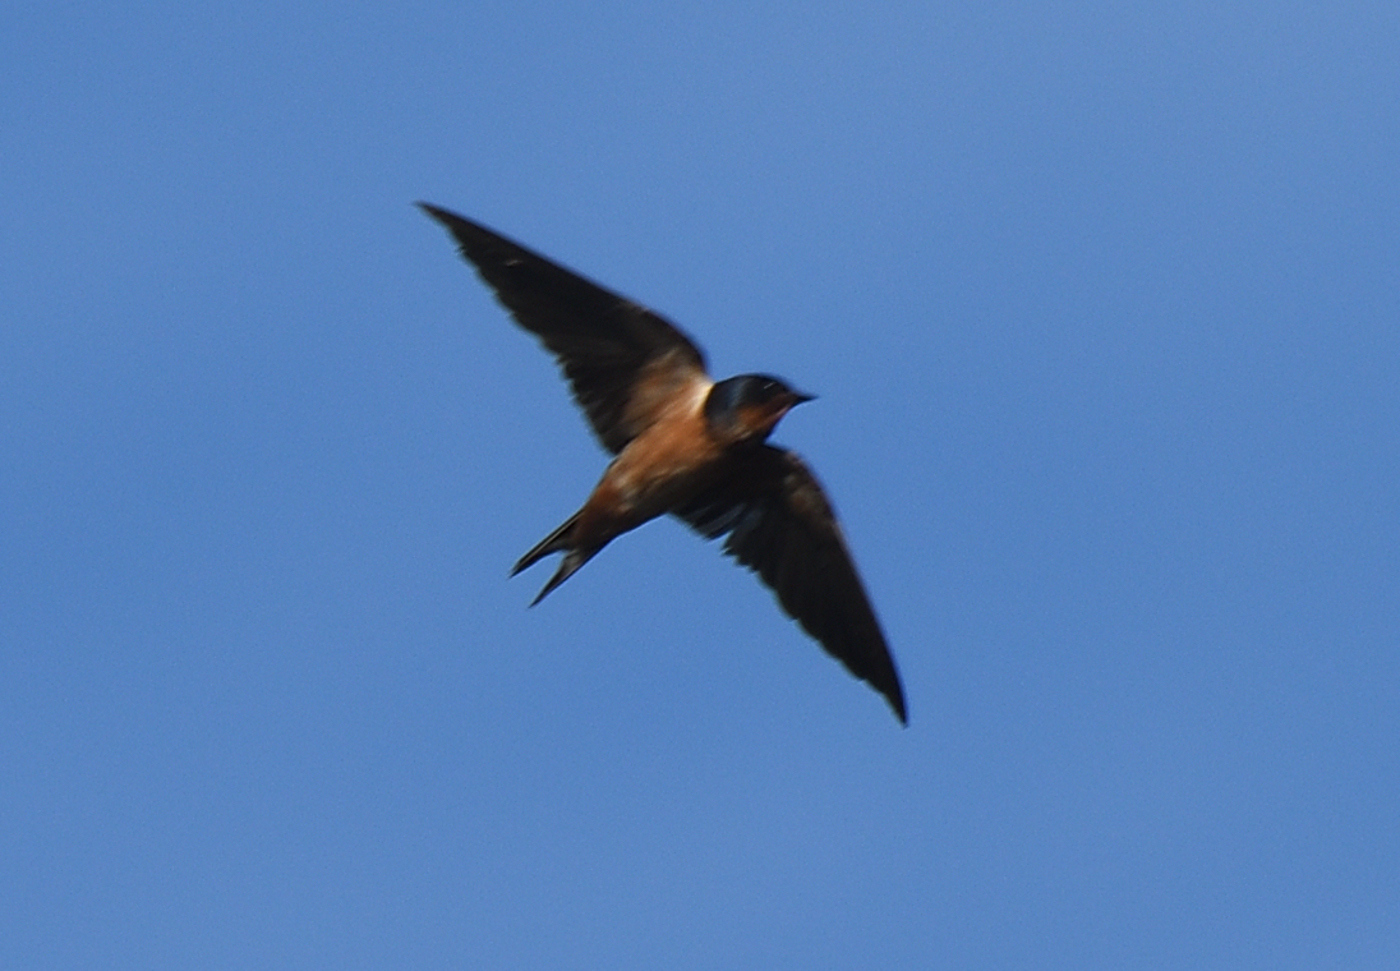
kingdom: Animalia
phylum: Chordata
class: Aves
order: Passeriformes
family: Hirundinidae
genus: Hirundo
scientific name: Hirundo rustica
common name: Barn swallow
